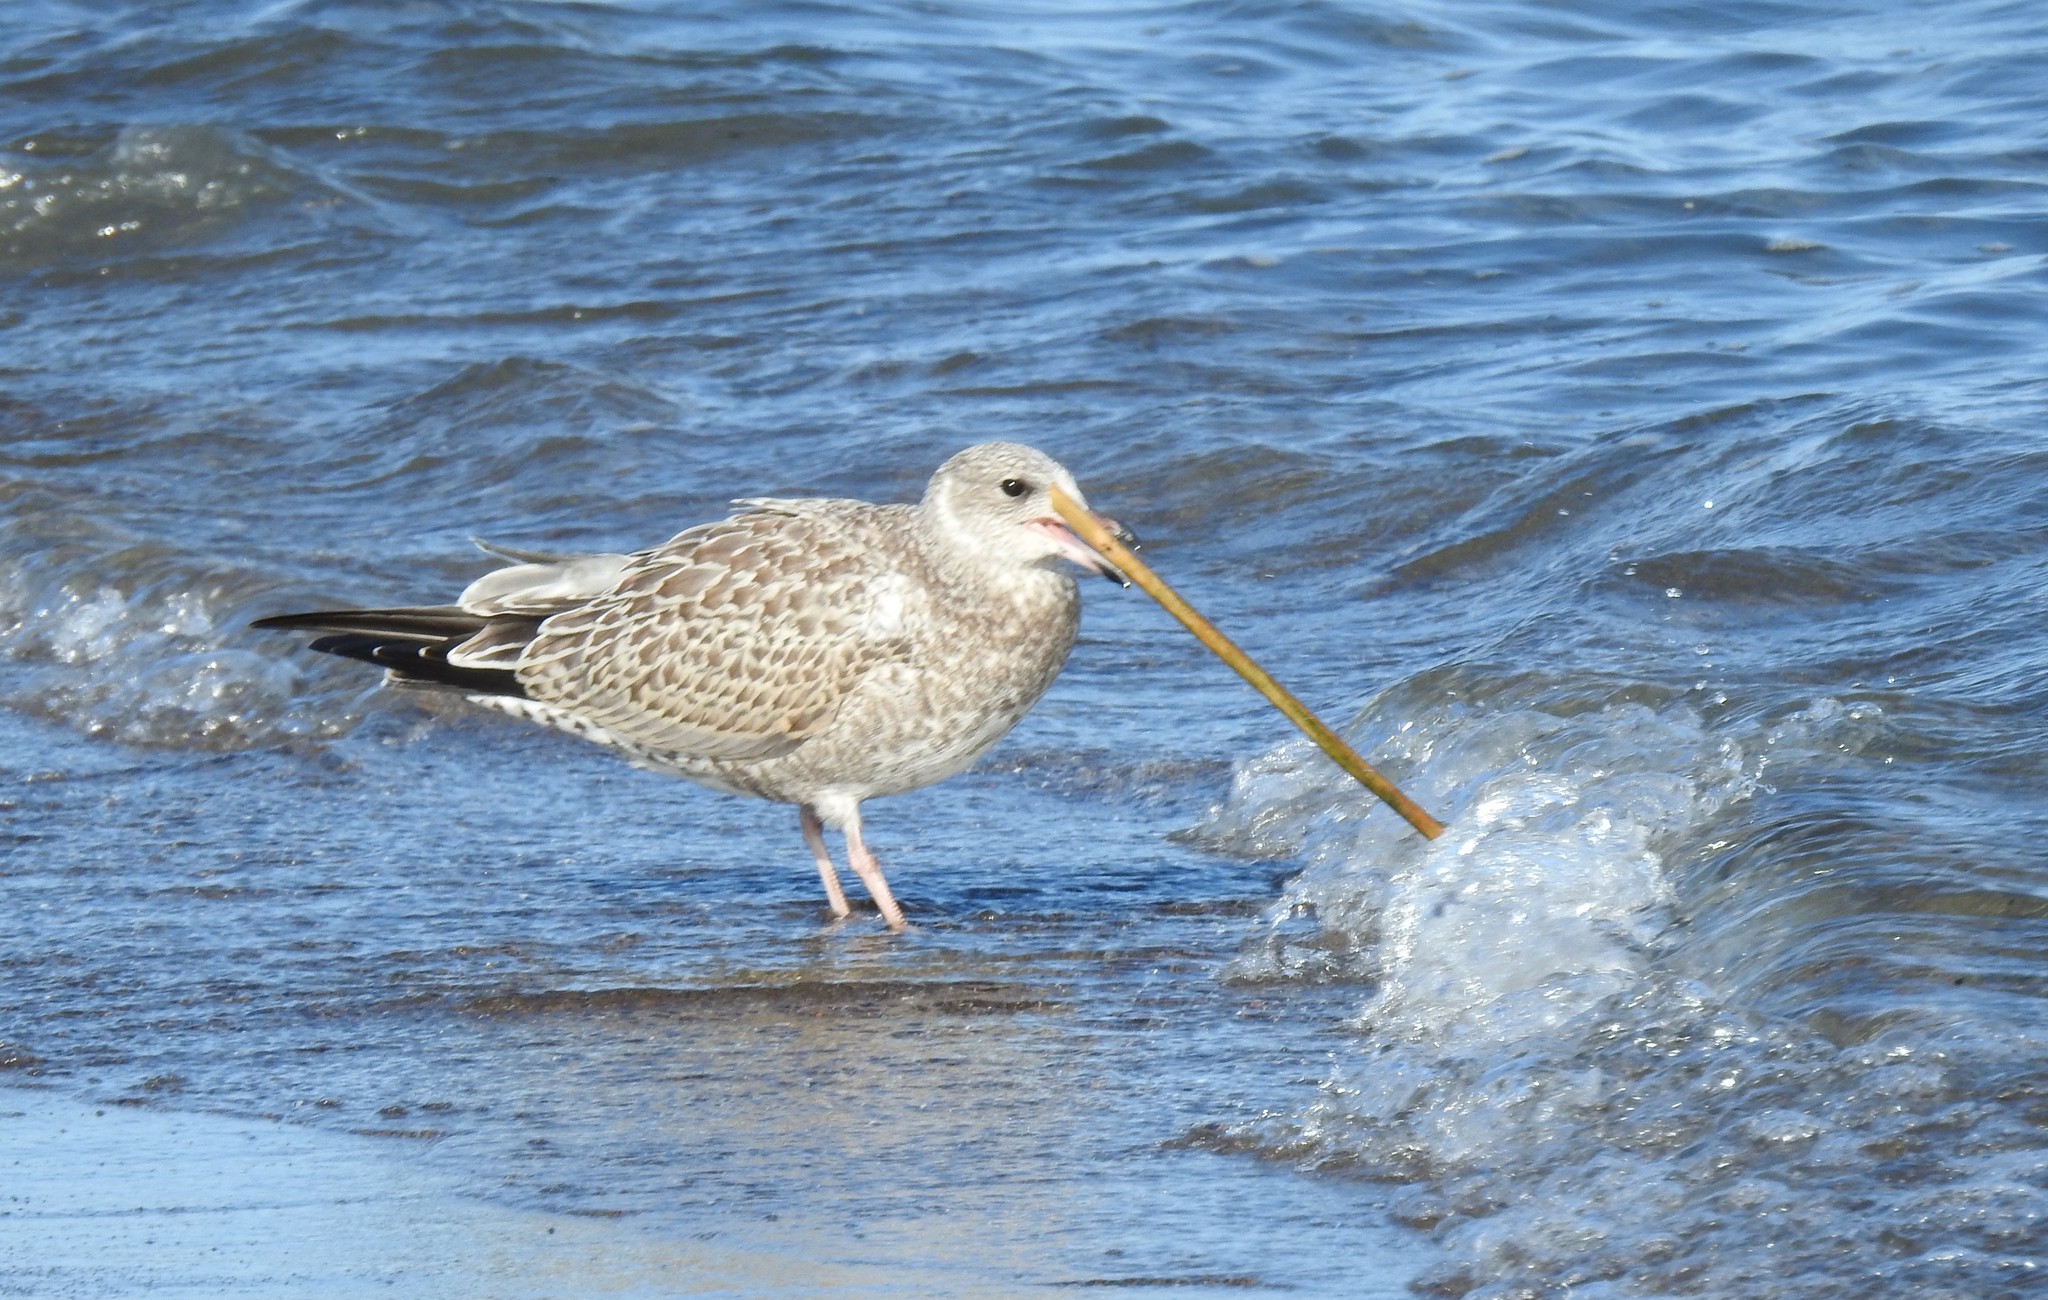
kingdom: Animalia
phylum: Chordata
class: Aves
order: Charadriiformes
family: Laridae
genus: Larus
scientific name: Larus delawarensis
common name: Ring-billed gull
